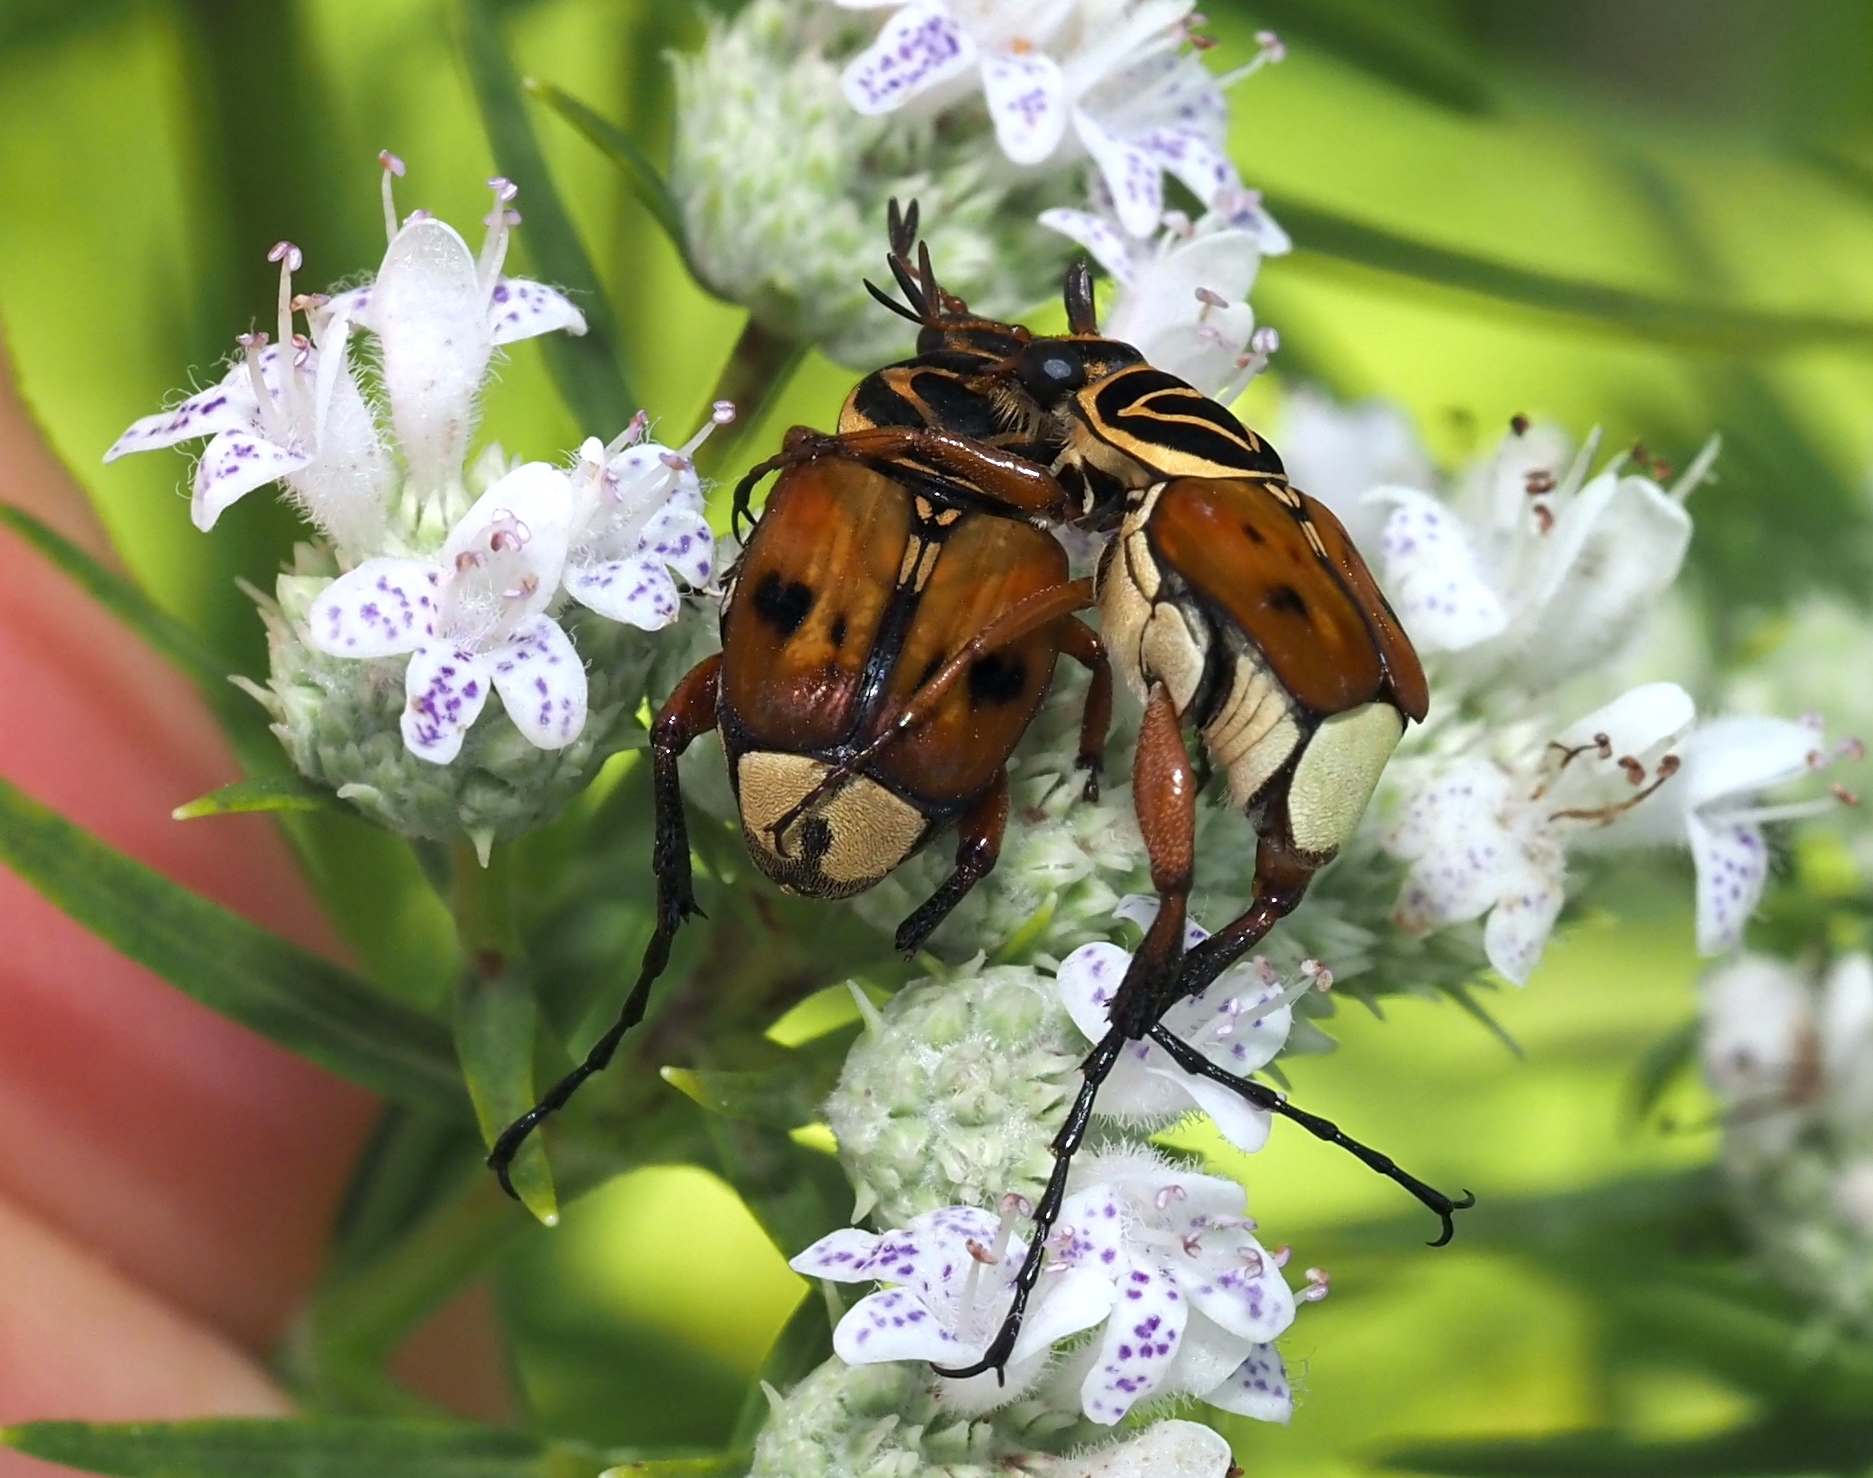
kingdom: Animalia
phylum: Arthropoda
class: Insecta
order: Coleoptera
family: Scarabaeidae
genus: Trigonopeltastes
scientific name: Trigonopeltastes delta
